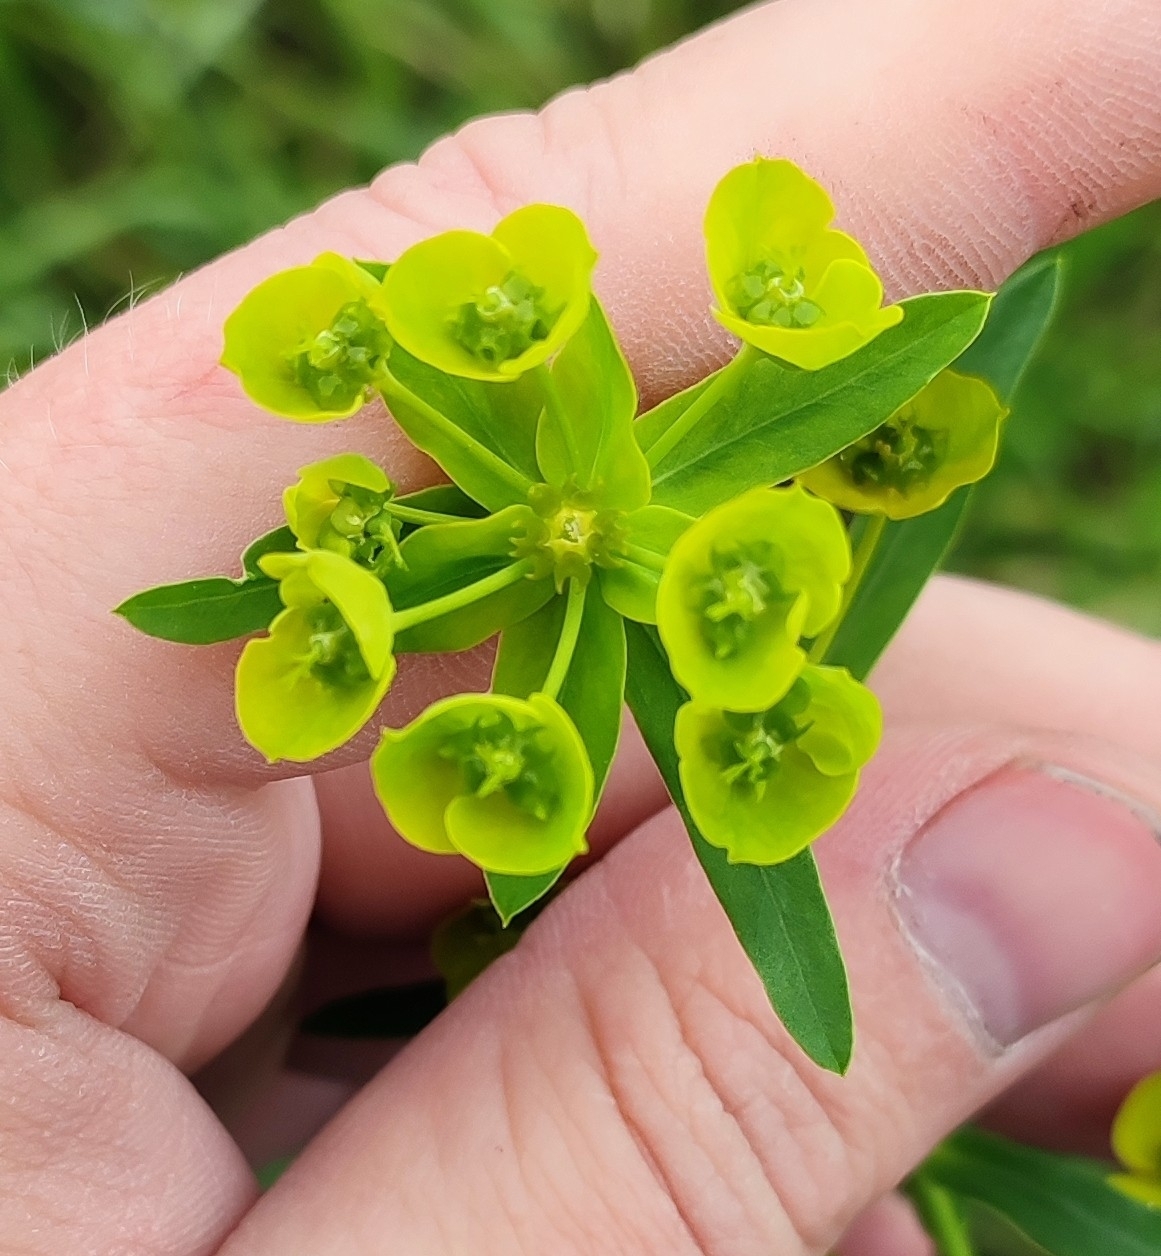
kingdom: Plantae
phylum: Tracheophyta
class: Magnoliopsida
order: Malpighiales
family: Euphorbiaceae
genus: Euphorbia
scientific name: Euphorbia virgata
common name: Leafy spurge
